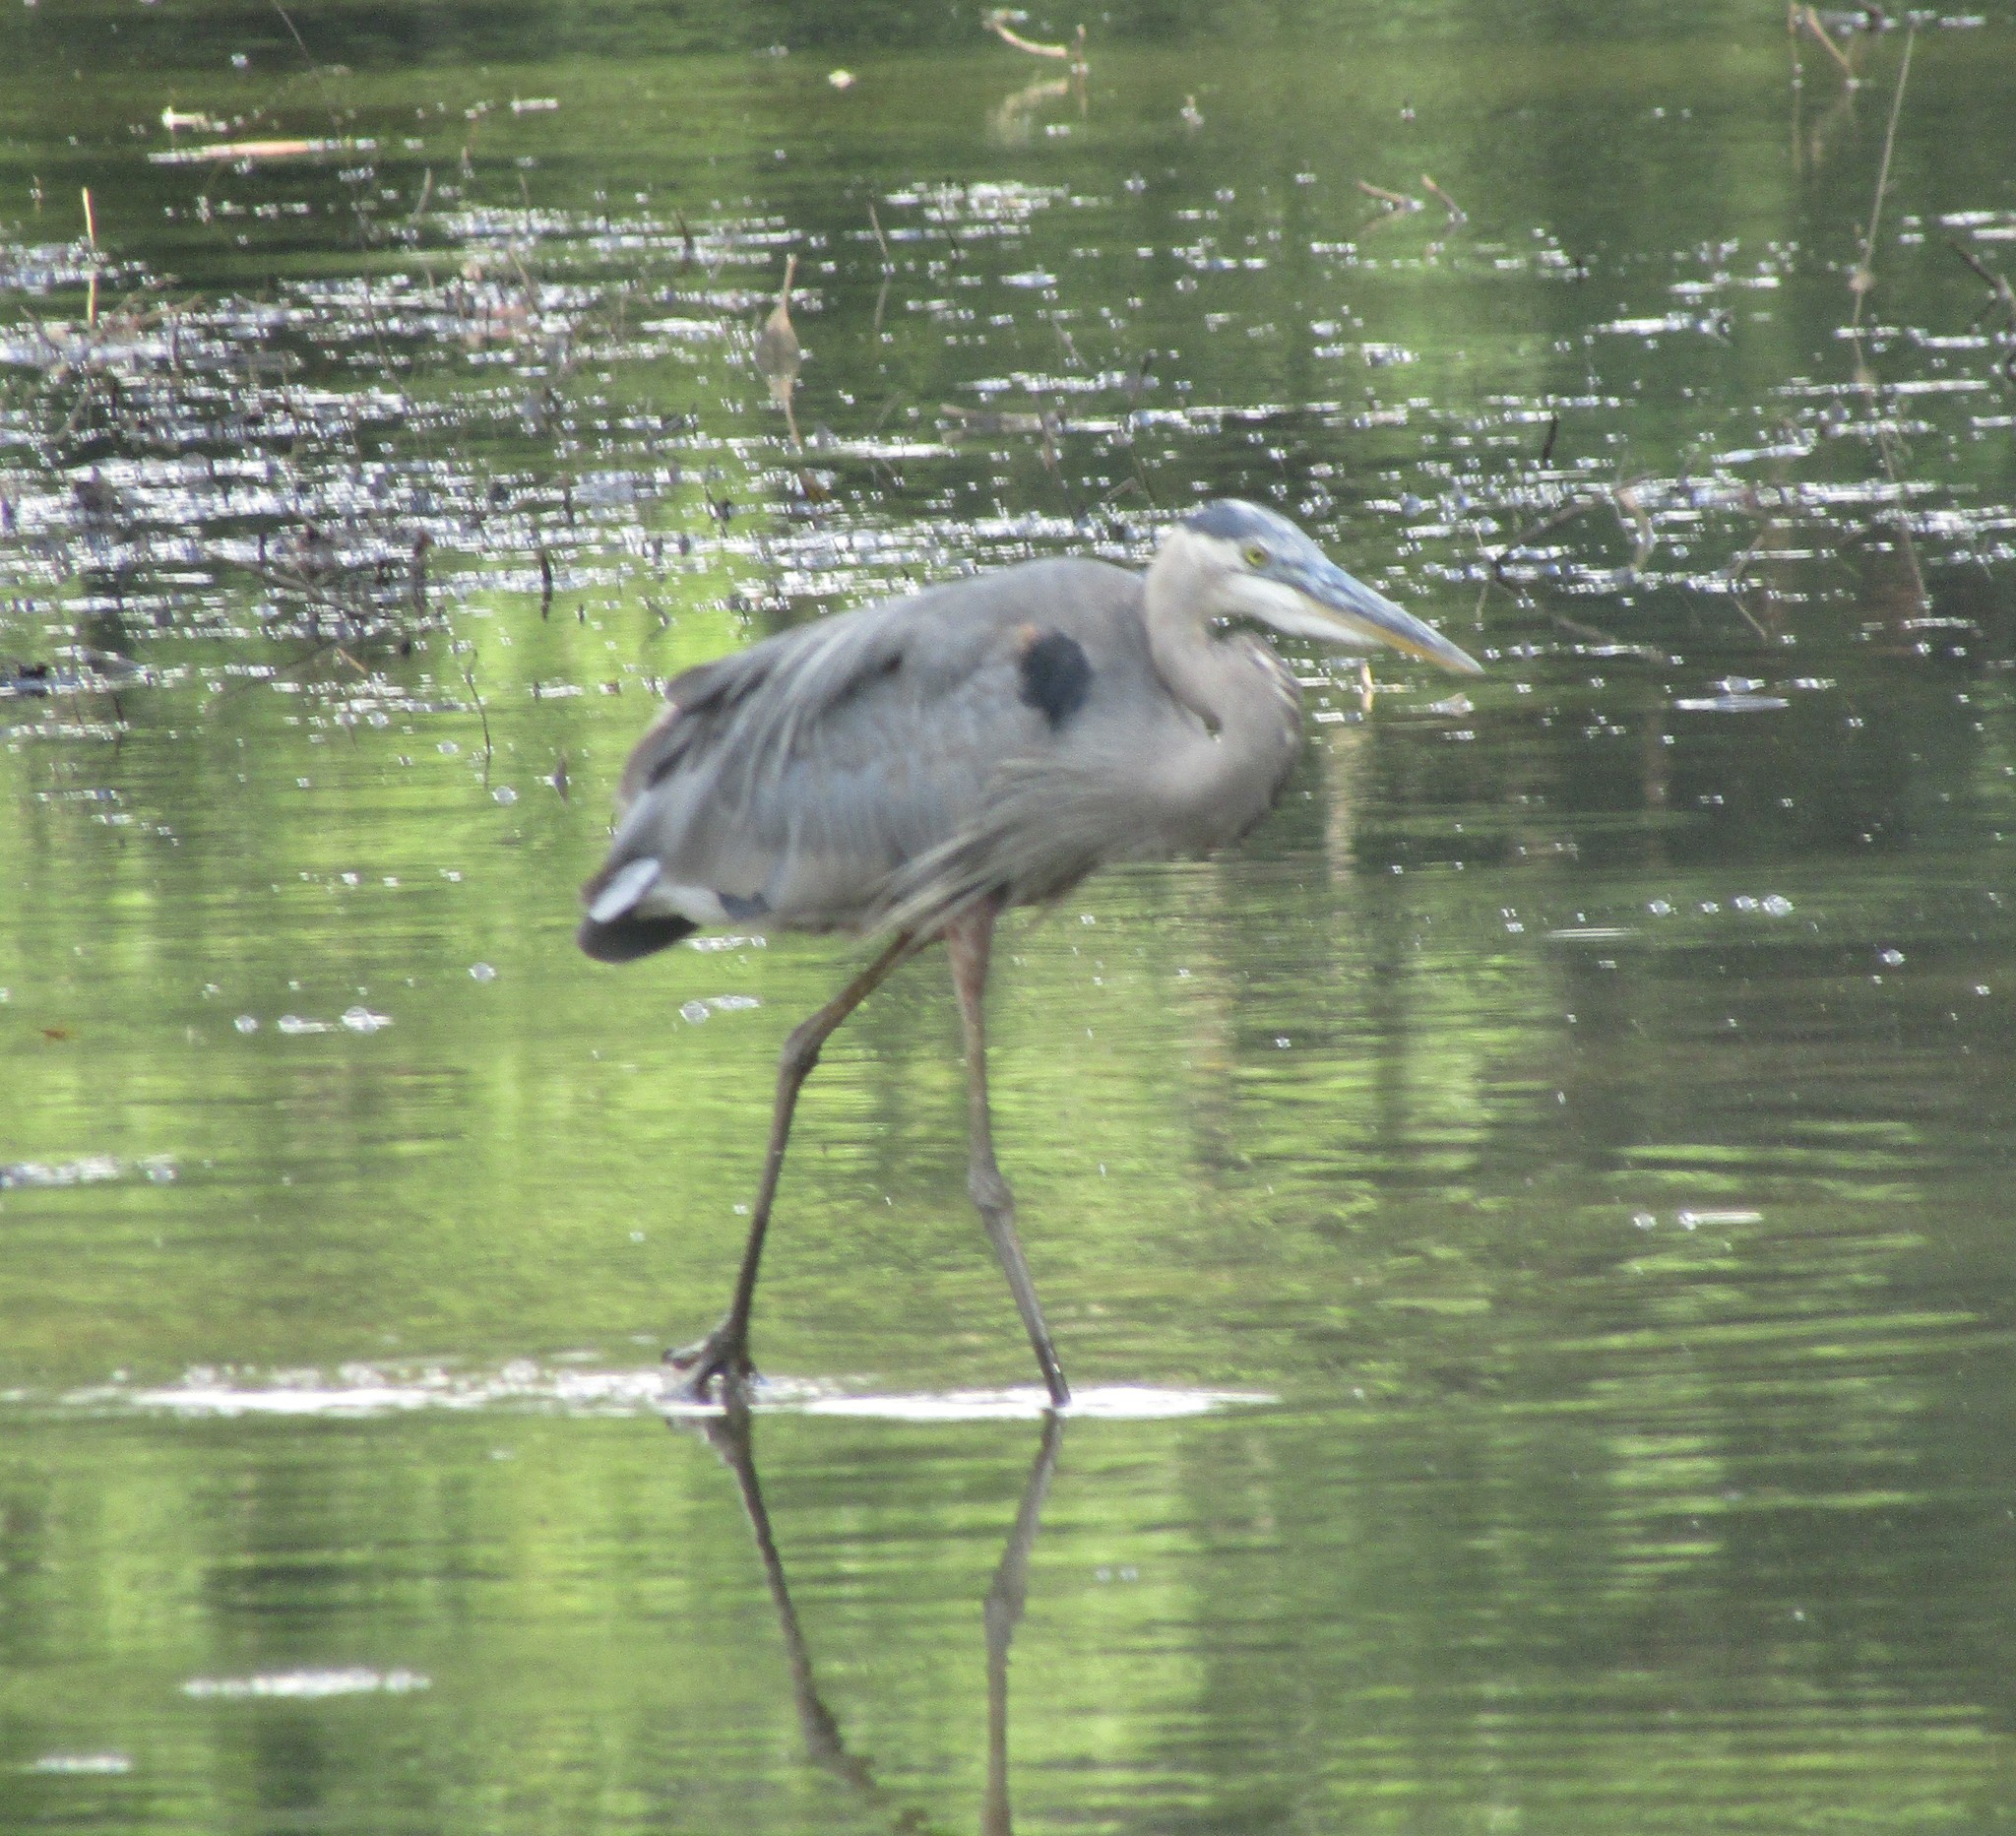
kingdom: Animalia
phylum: Chordata
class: Aves
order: Pelecaniformes
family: Ardeidae
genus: Ardea
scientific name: Ardea herodias
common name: Great blue heron
